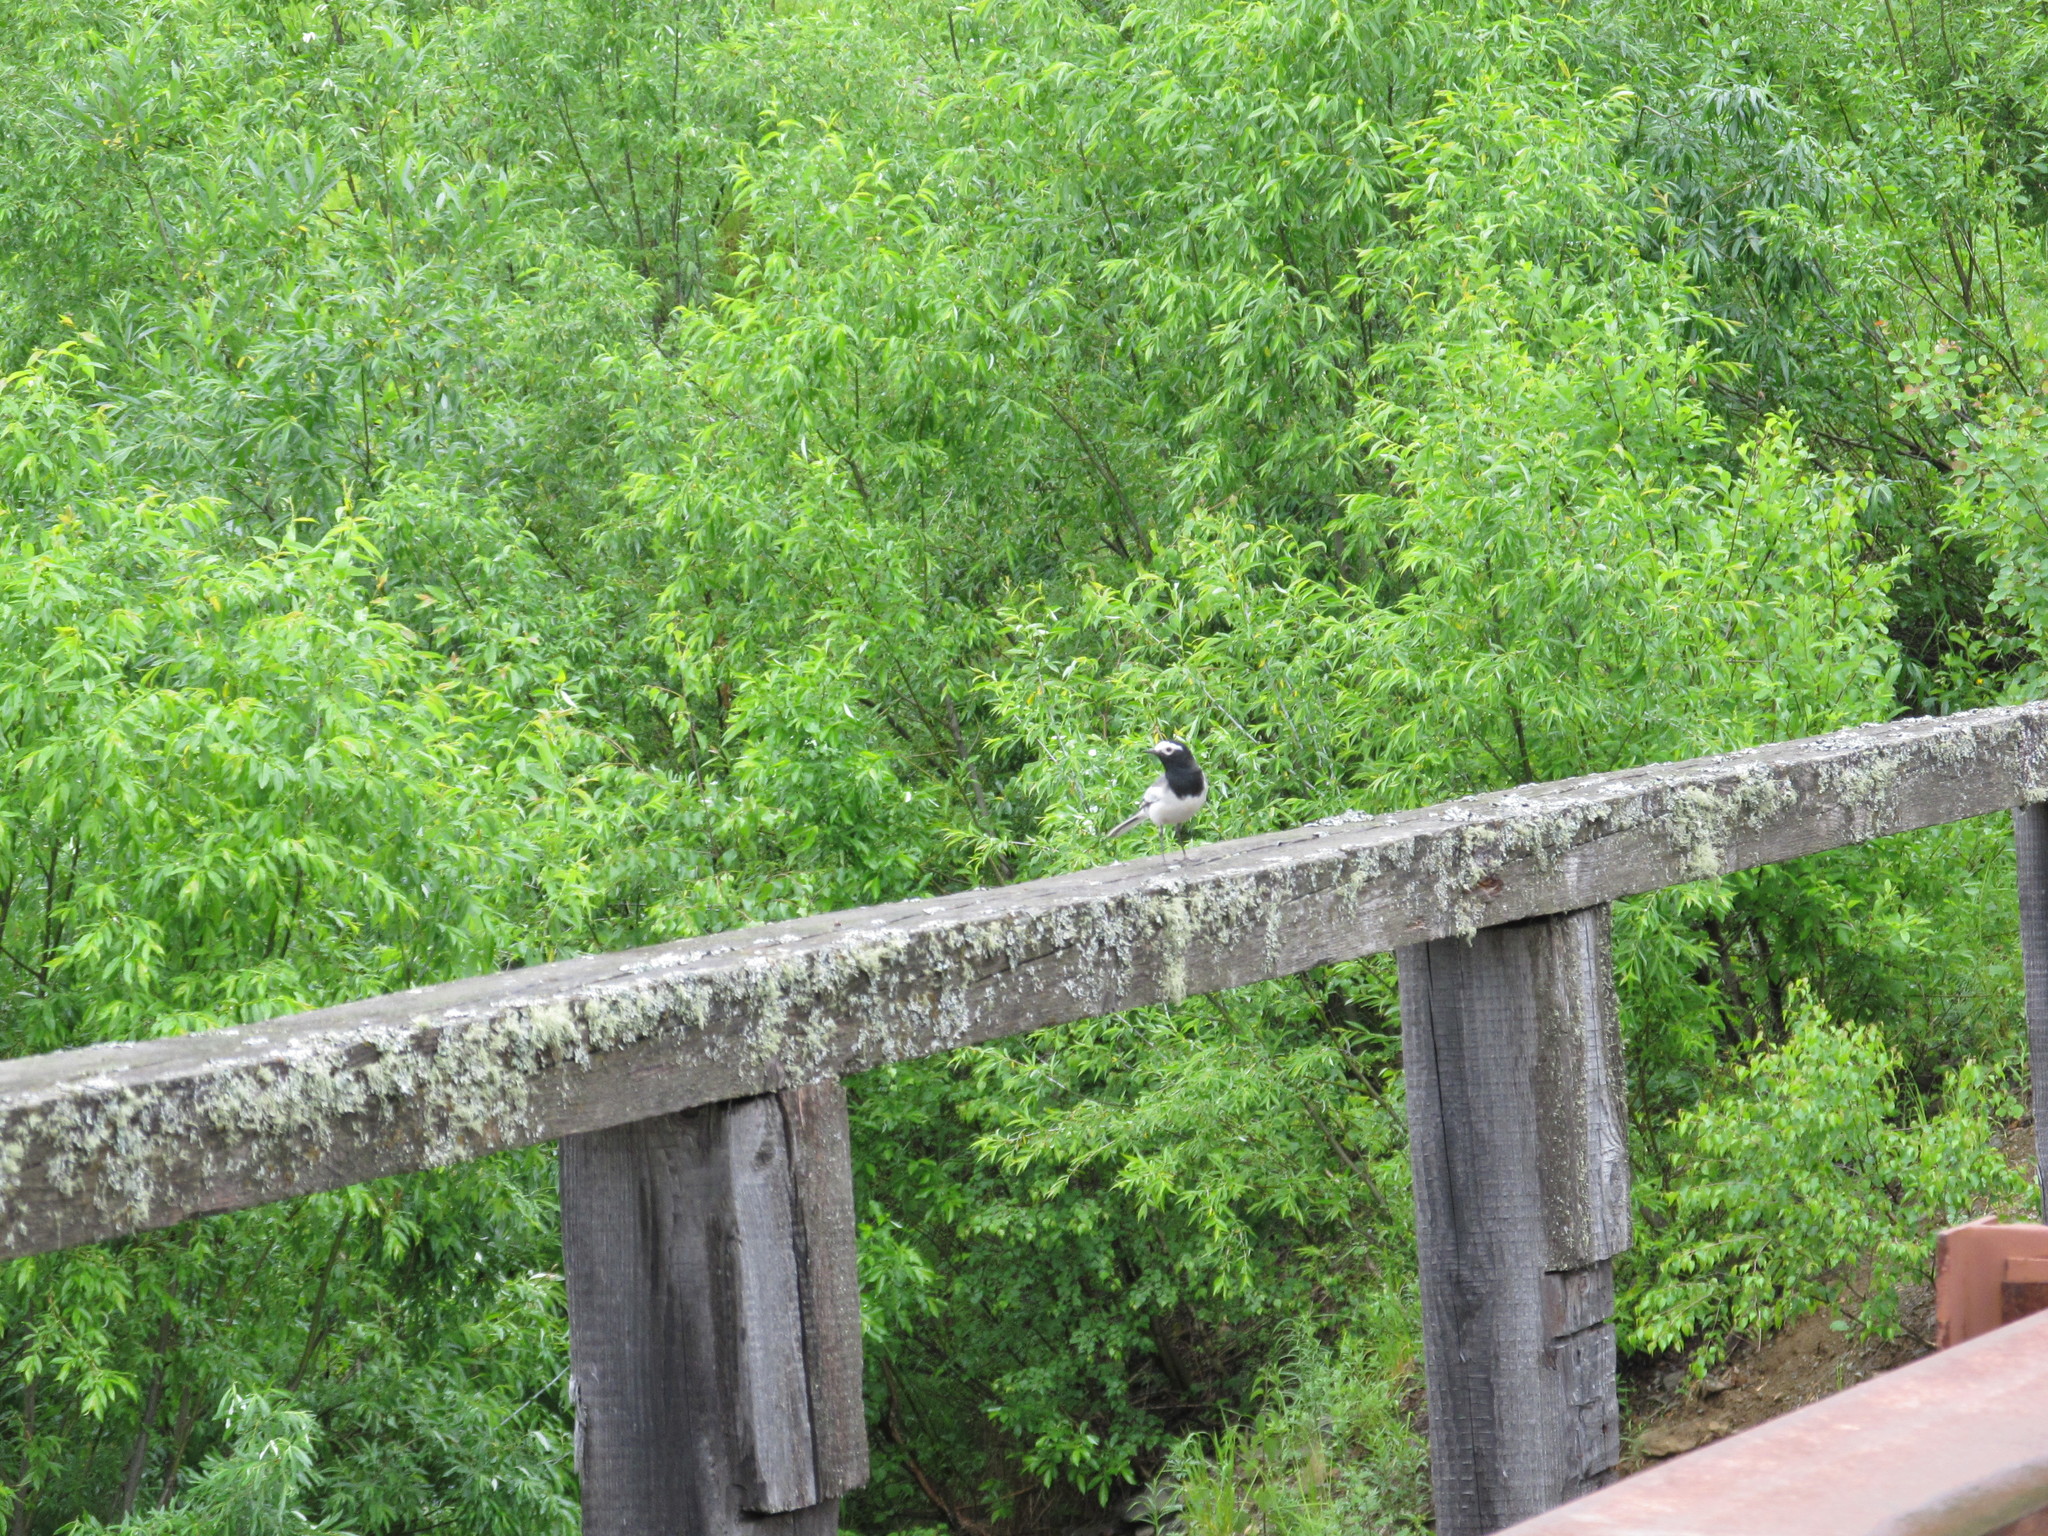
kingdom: Animalia
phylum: Chordata
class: Aves
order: Passeriformes
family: Motacillidae
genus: Motacilla
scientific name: Motacilla alba
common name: White wagtail
